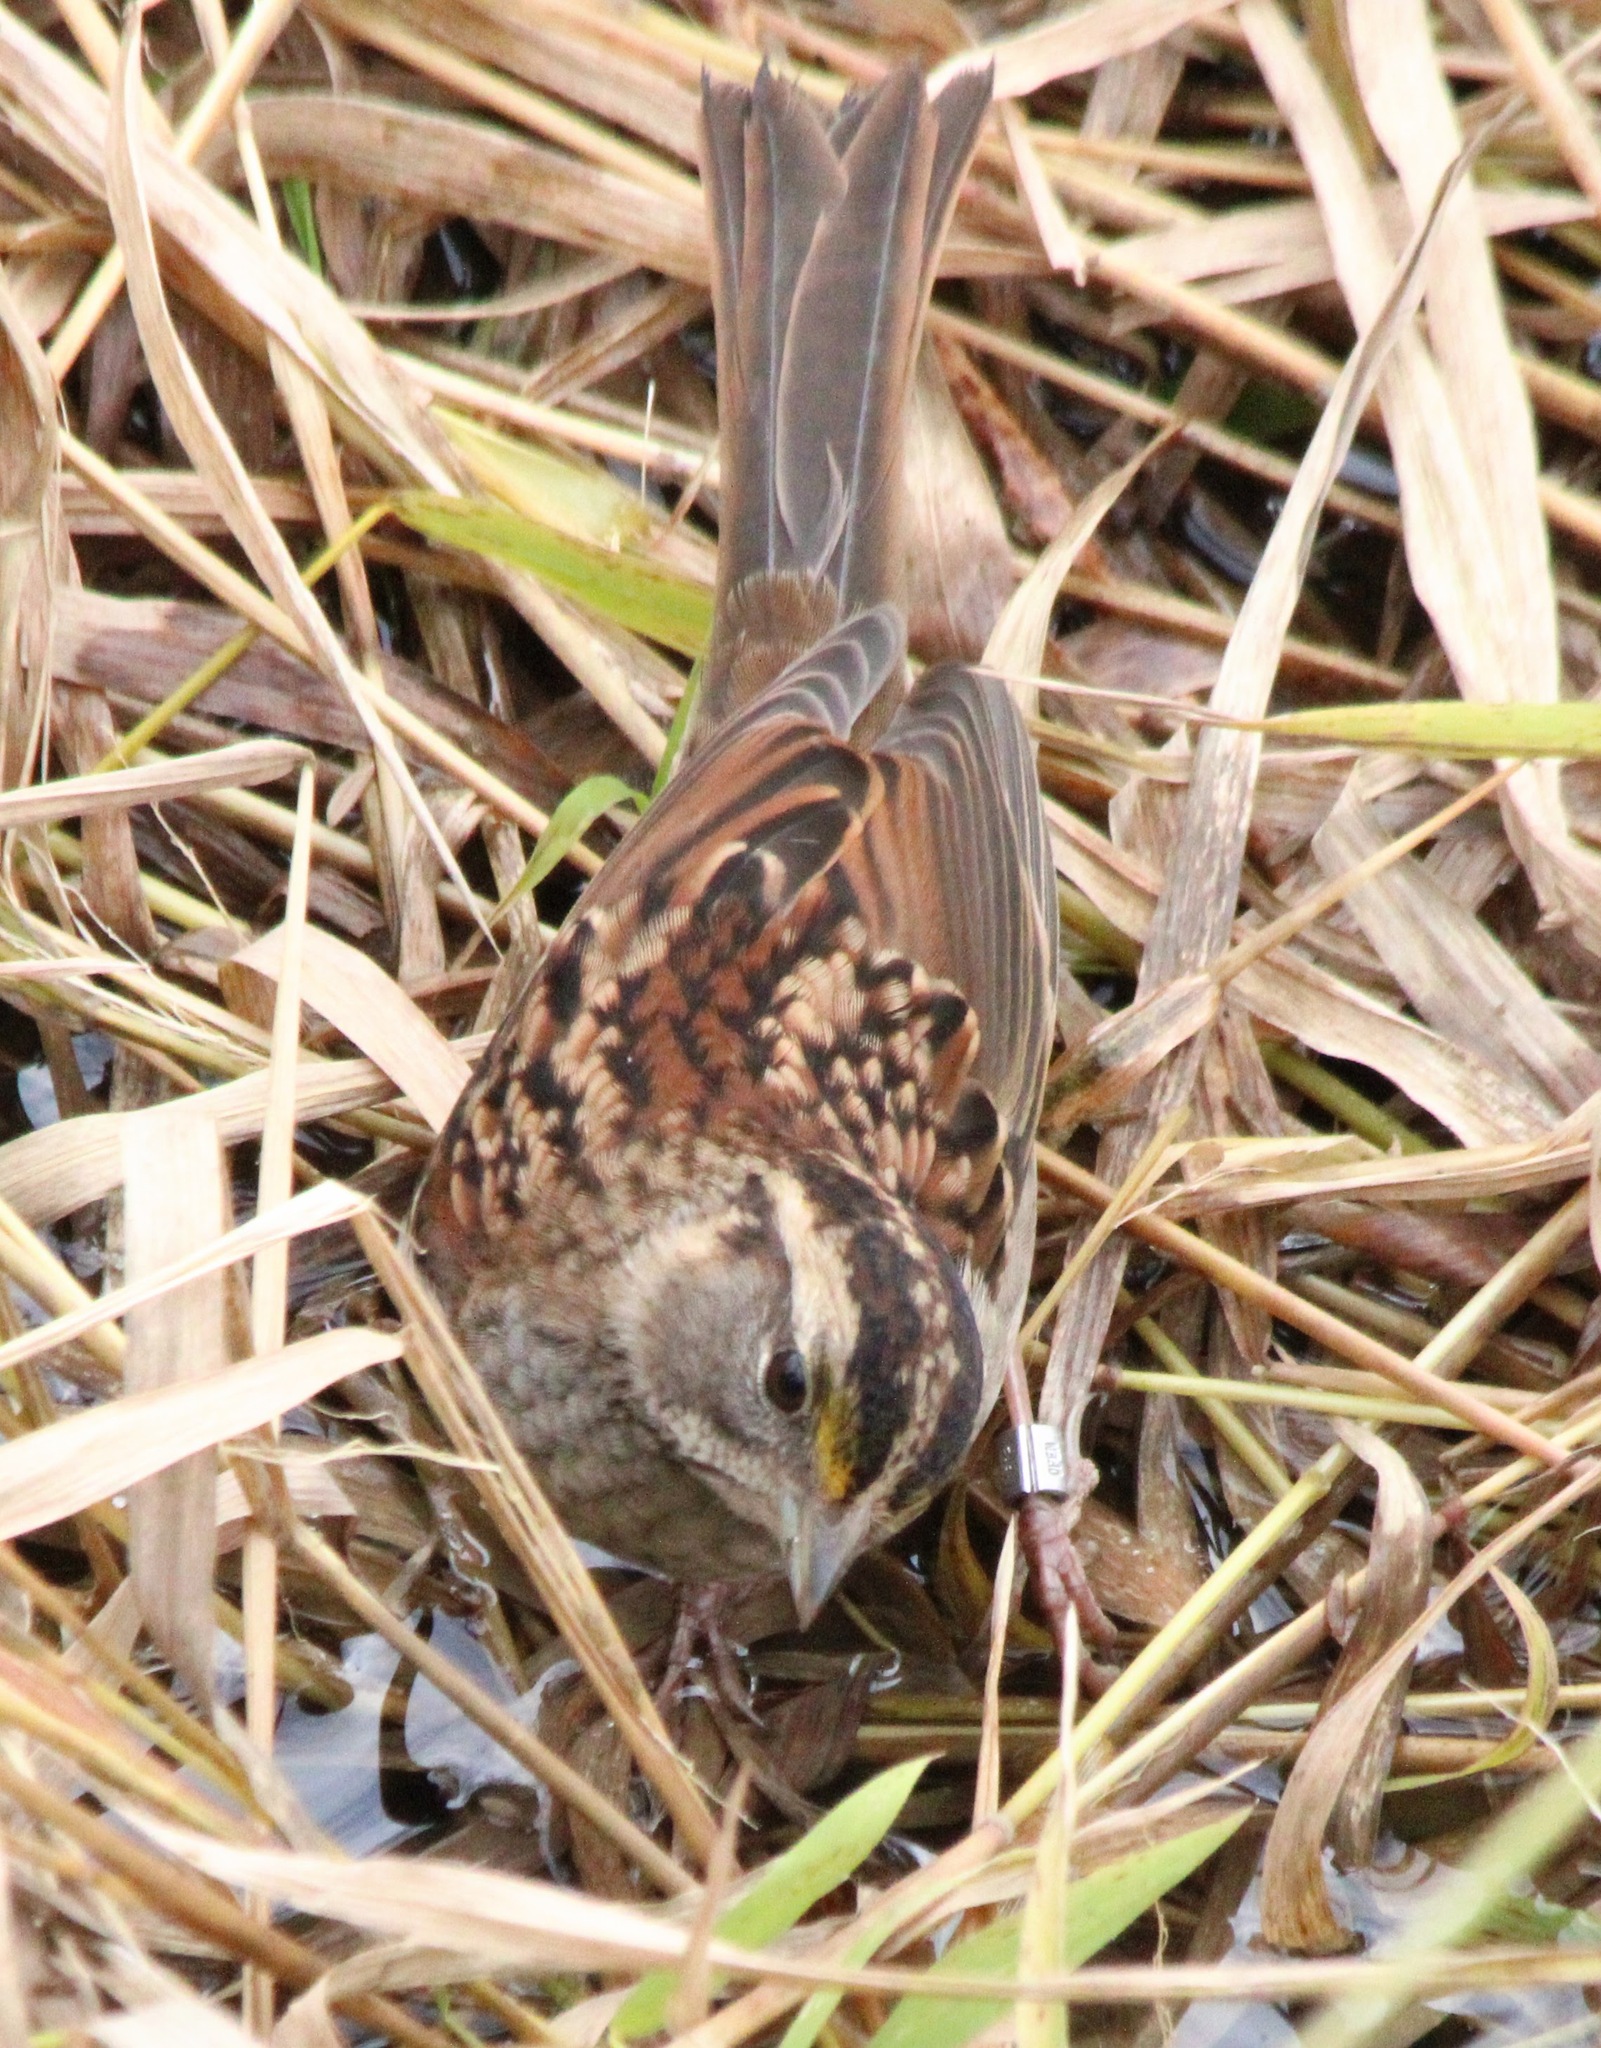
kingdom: Animalia
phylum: Chordata
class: Aves
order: Passeriformes
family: Passerellidae
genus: Zonotrichia
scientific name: Zonotrichia albicollis
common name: White-throated sparrow
